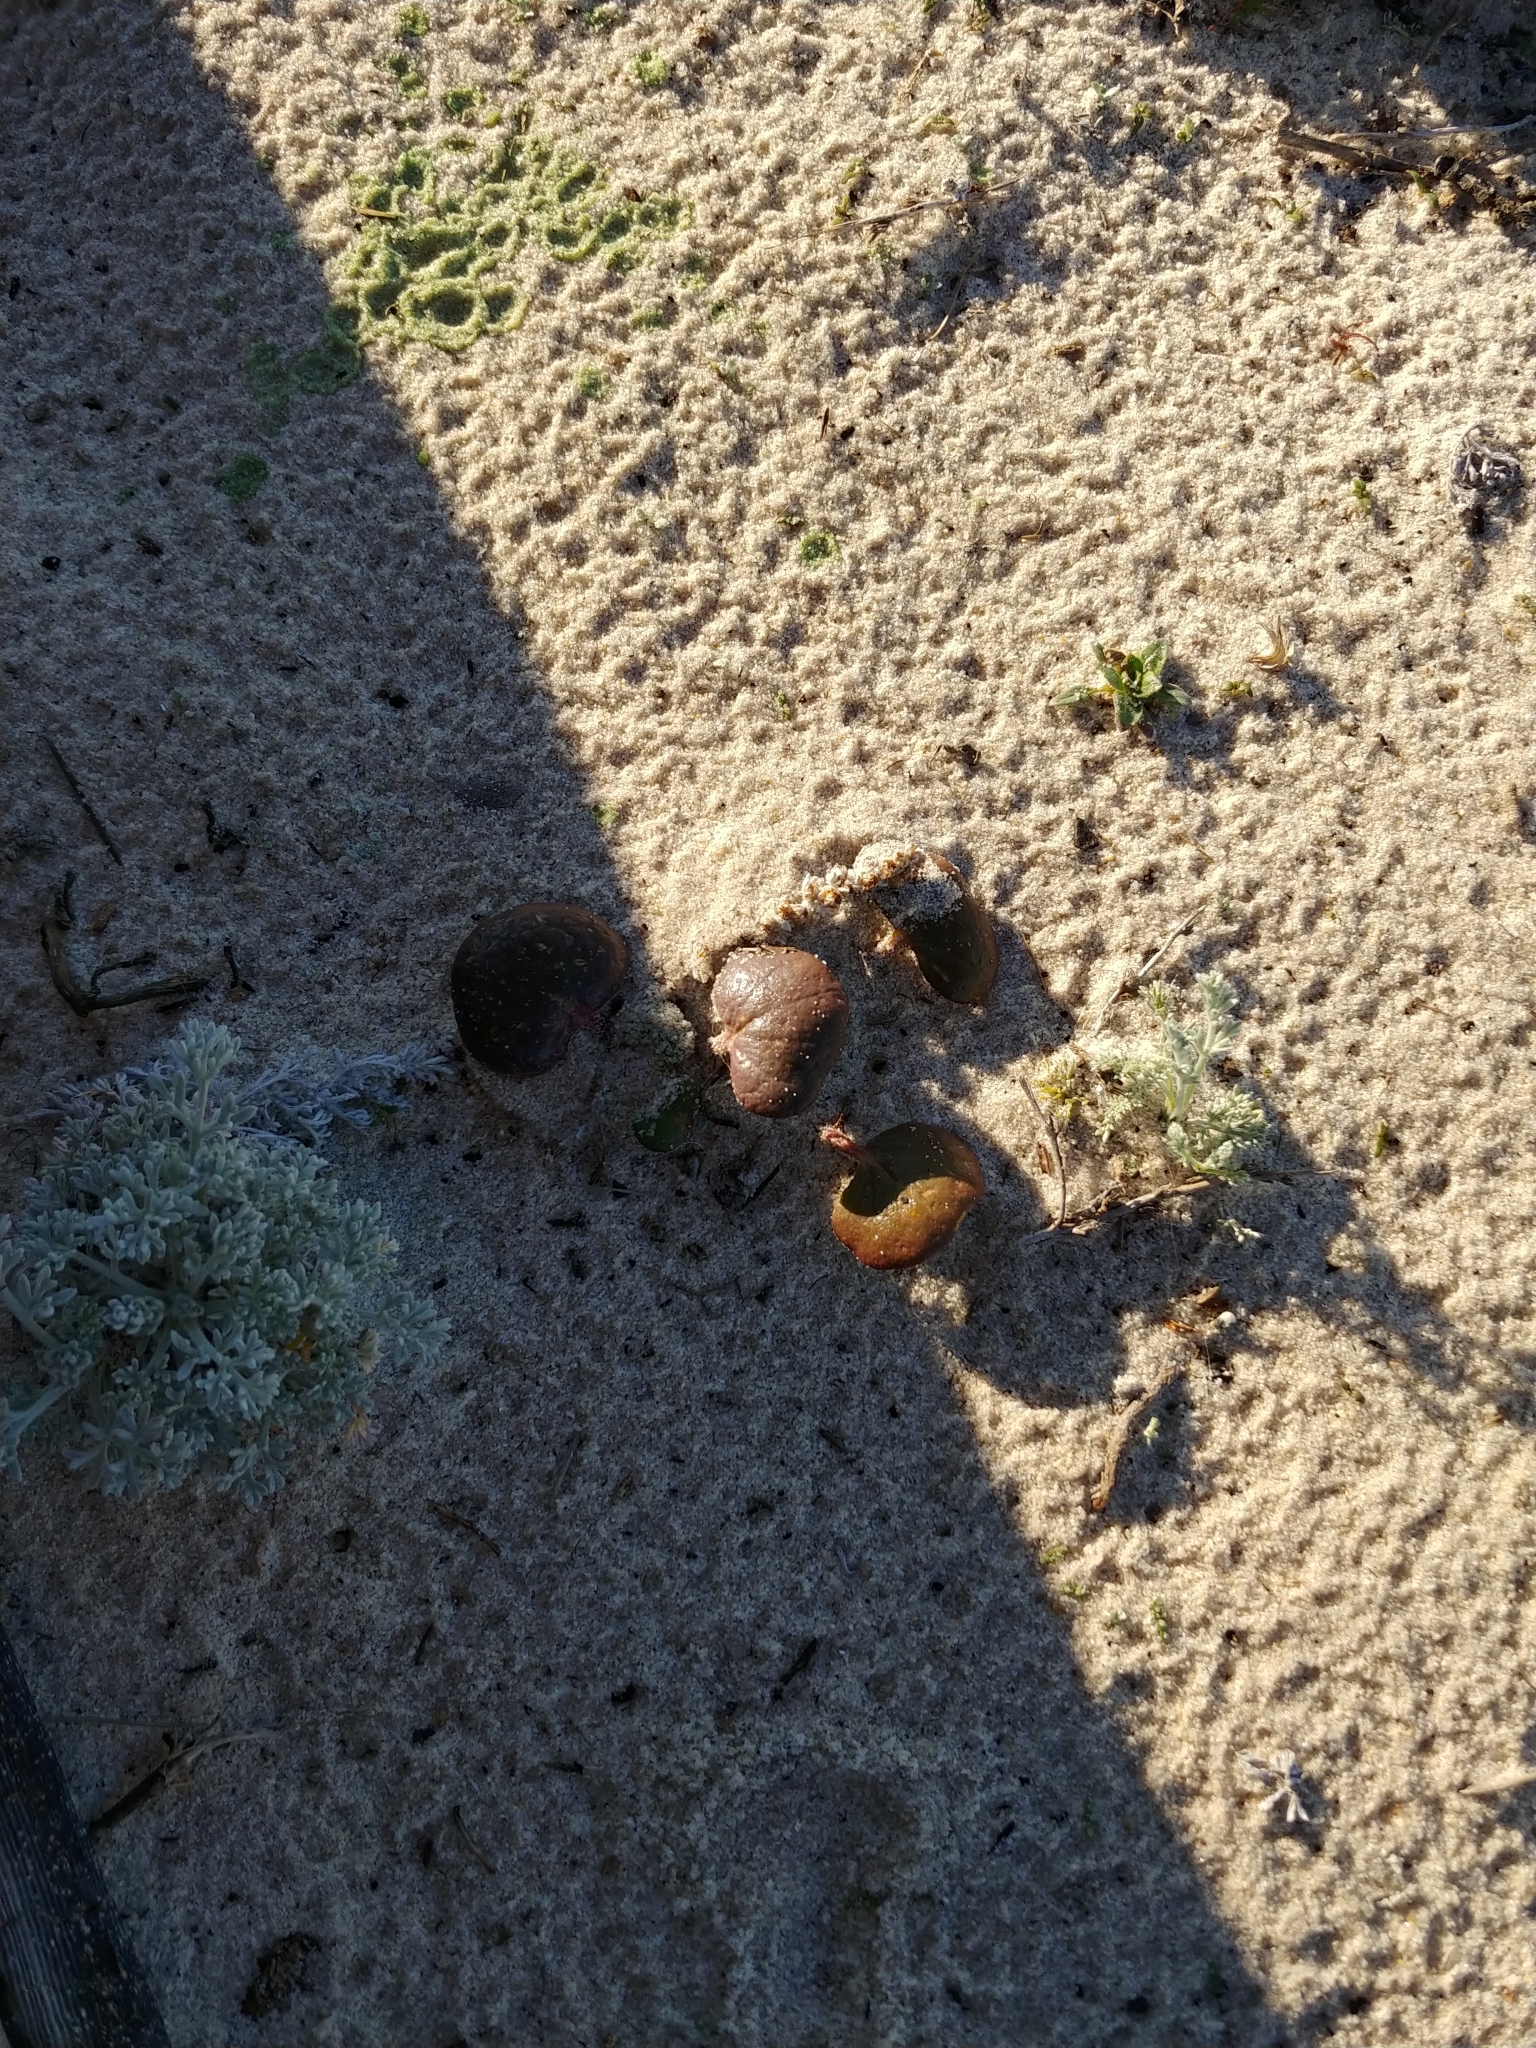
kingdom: Plantae
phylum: Tracheophyta
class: Magnoliopsida
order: Caryophyllales
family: Nyctaginaceae
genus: Abronia
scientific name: Abronia latifolia
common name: Yellow sand-verbena
